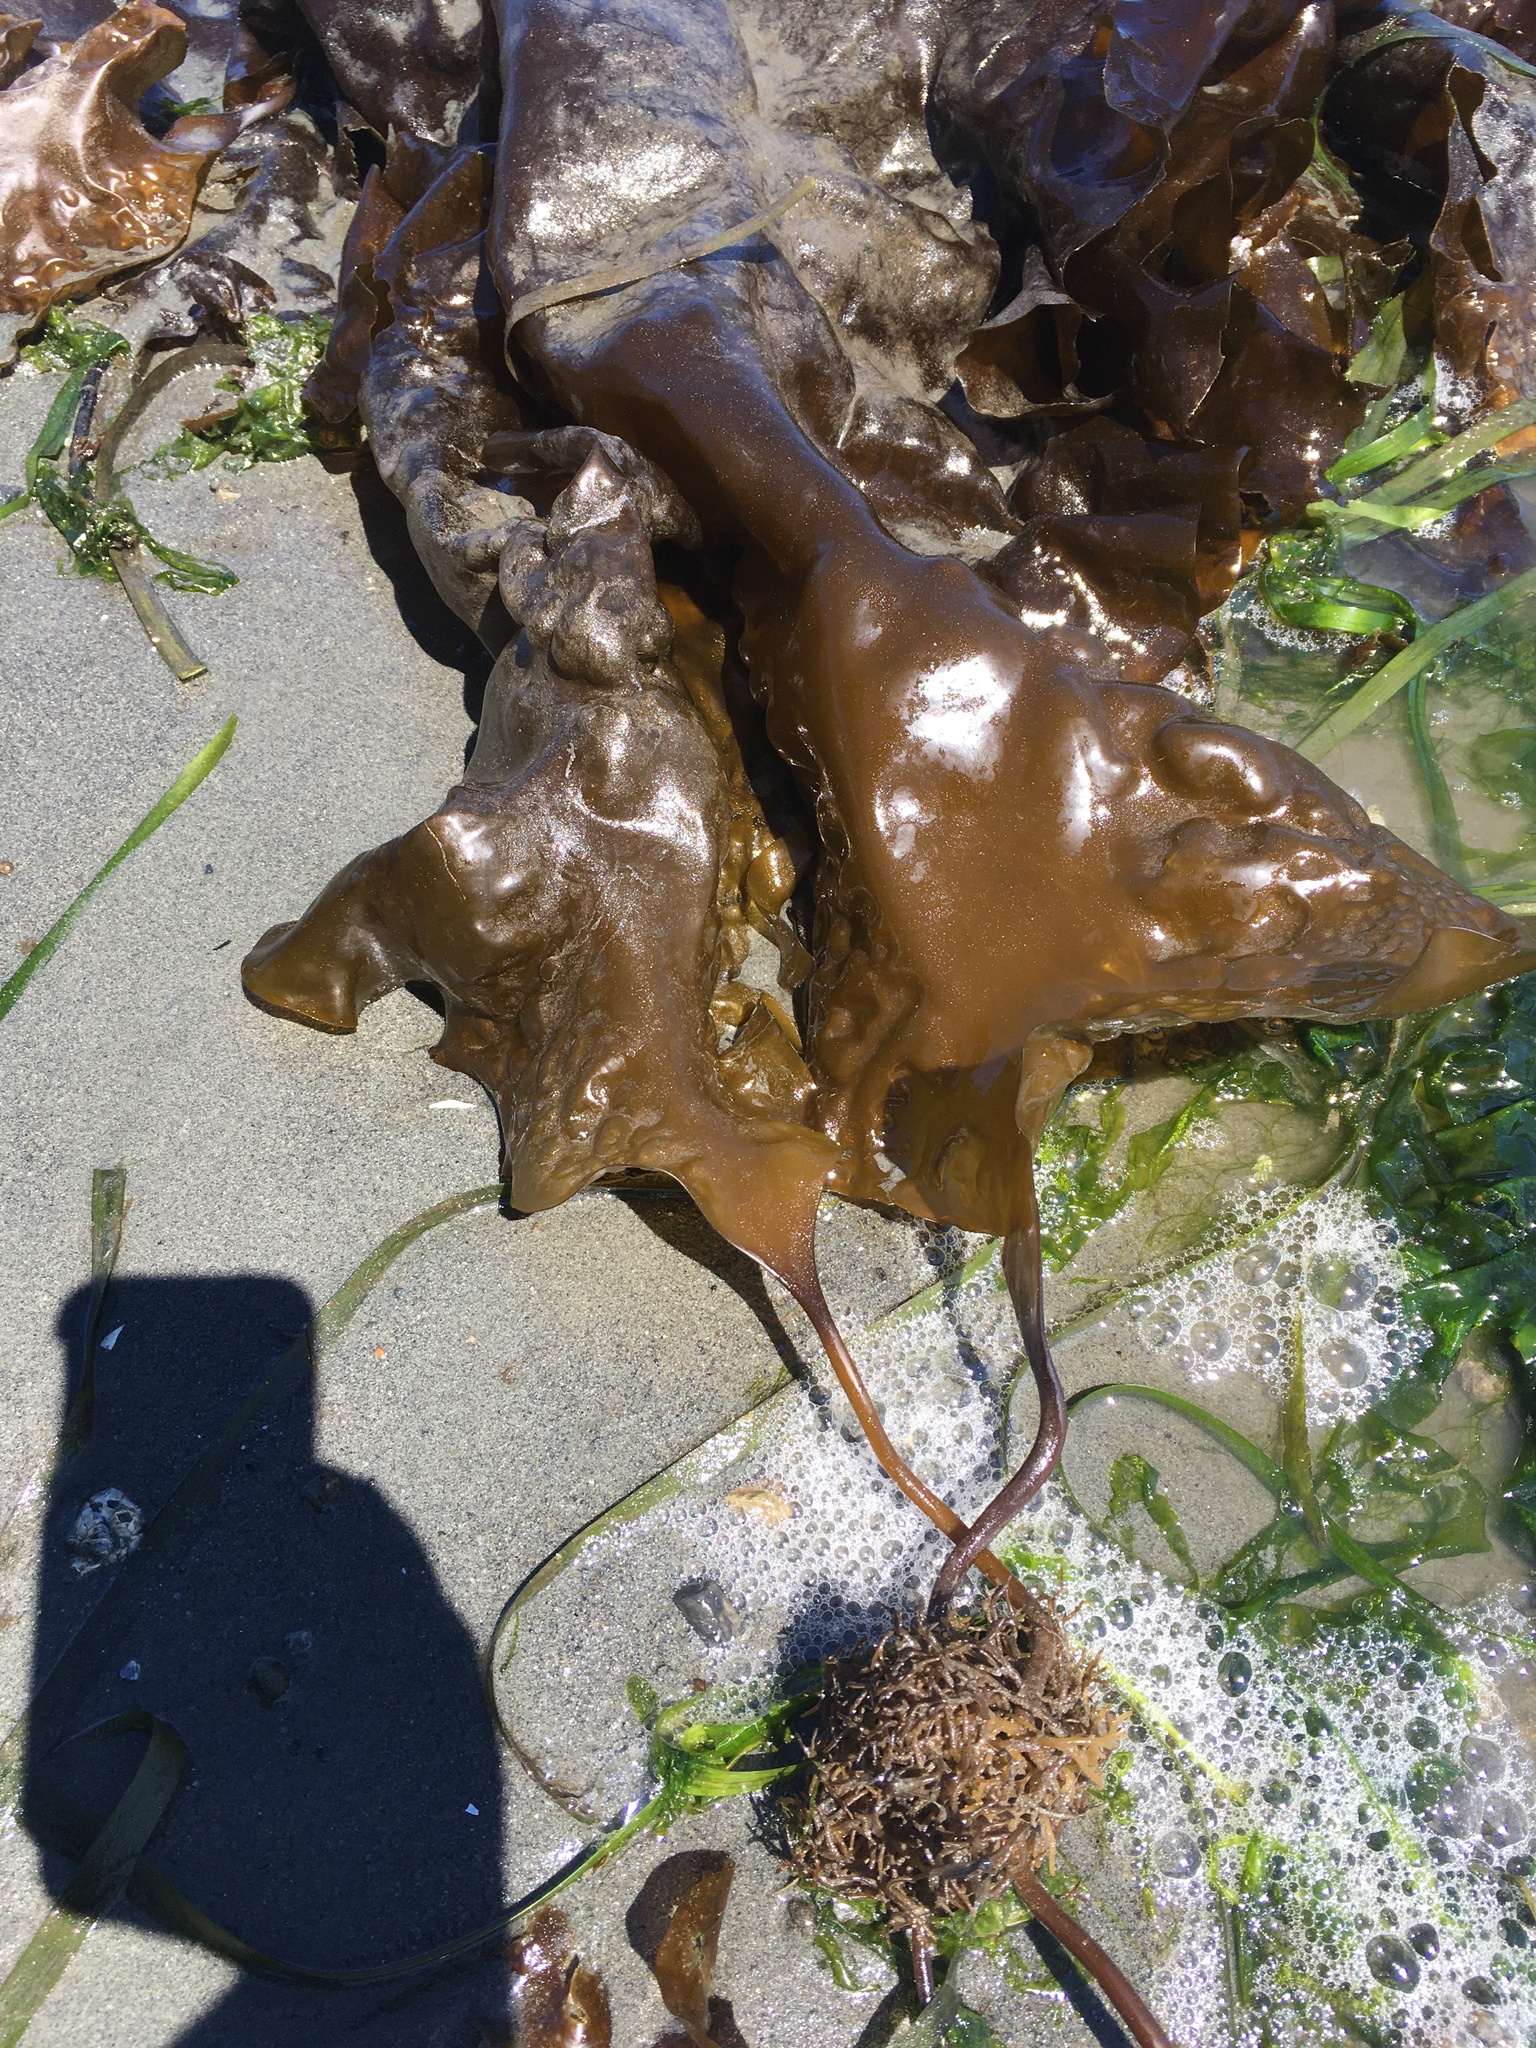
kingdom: Chromista
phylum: Ochrophyta
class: Phaeophyceae
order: Laminariales
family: Laminariaceae
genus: Saccharina
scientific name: Saccharina latissima
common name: Poor man's weather glass
